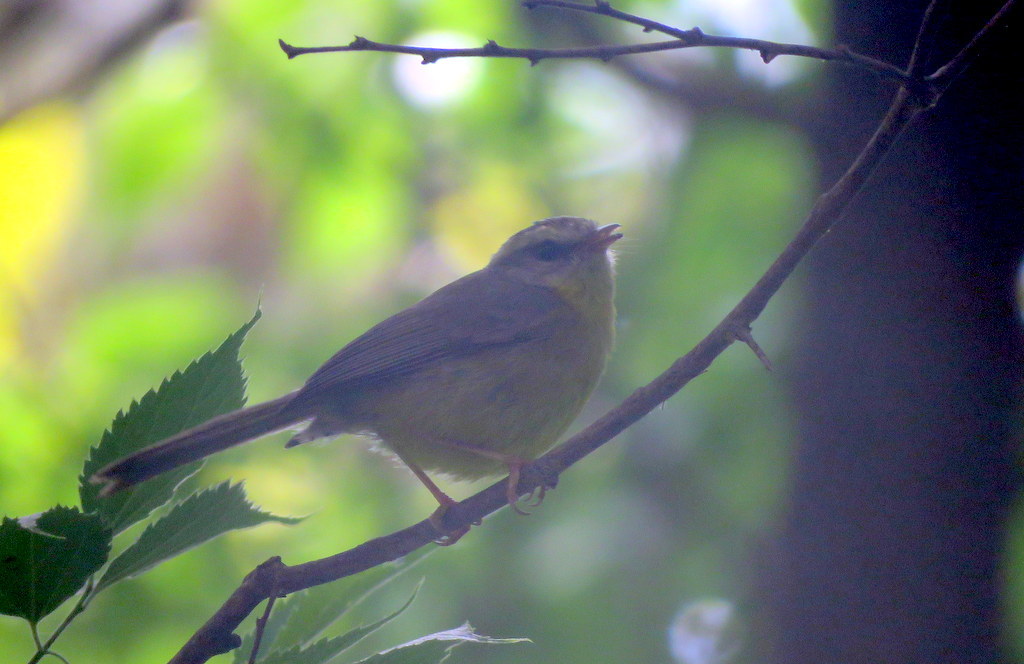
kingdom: Animalia
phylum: Chordata
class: Aves
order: Passeriformes
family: Parulidae
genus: Basileuterus
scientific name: Basileuterus culicivorus
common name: Golden-crowned warbler
